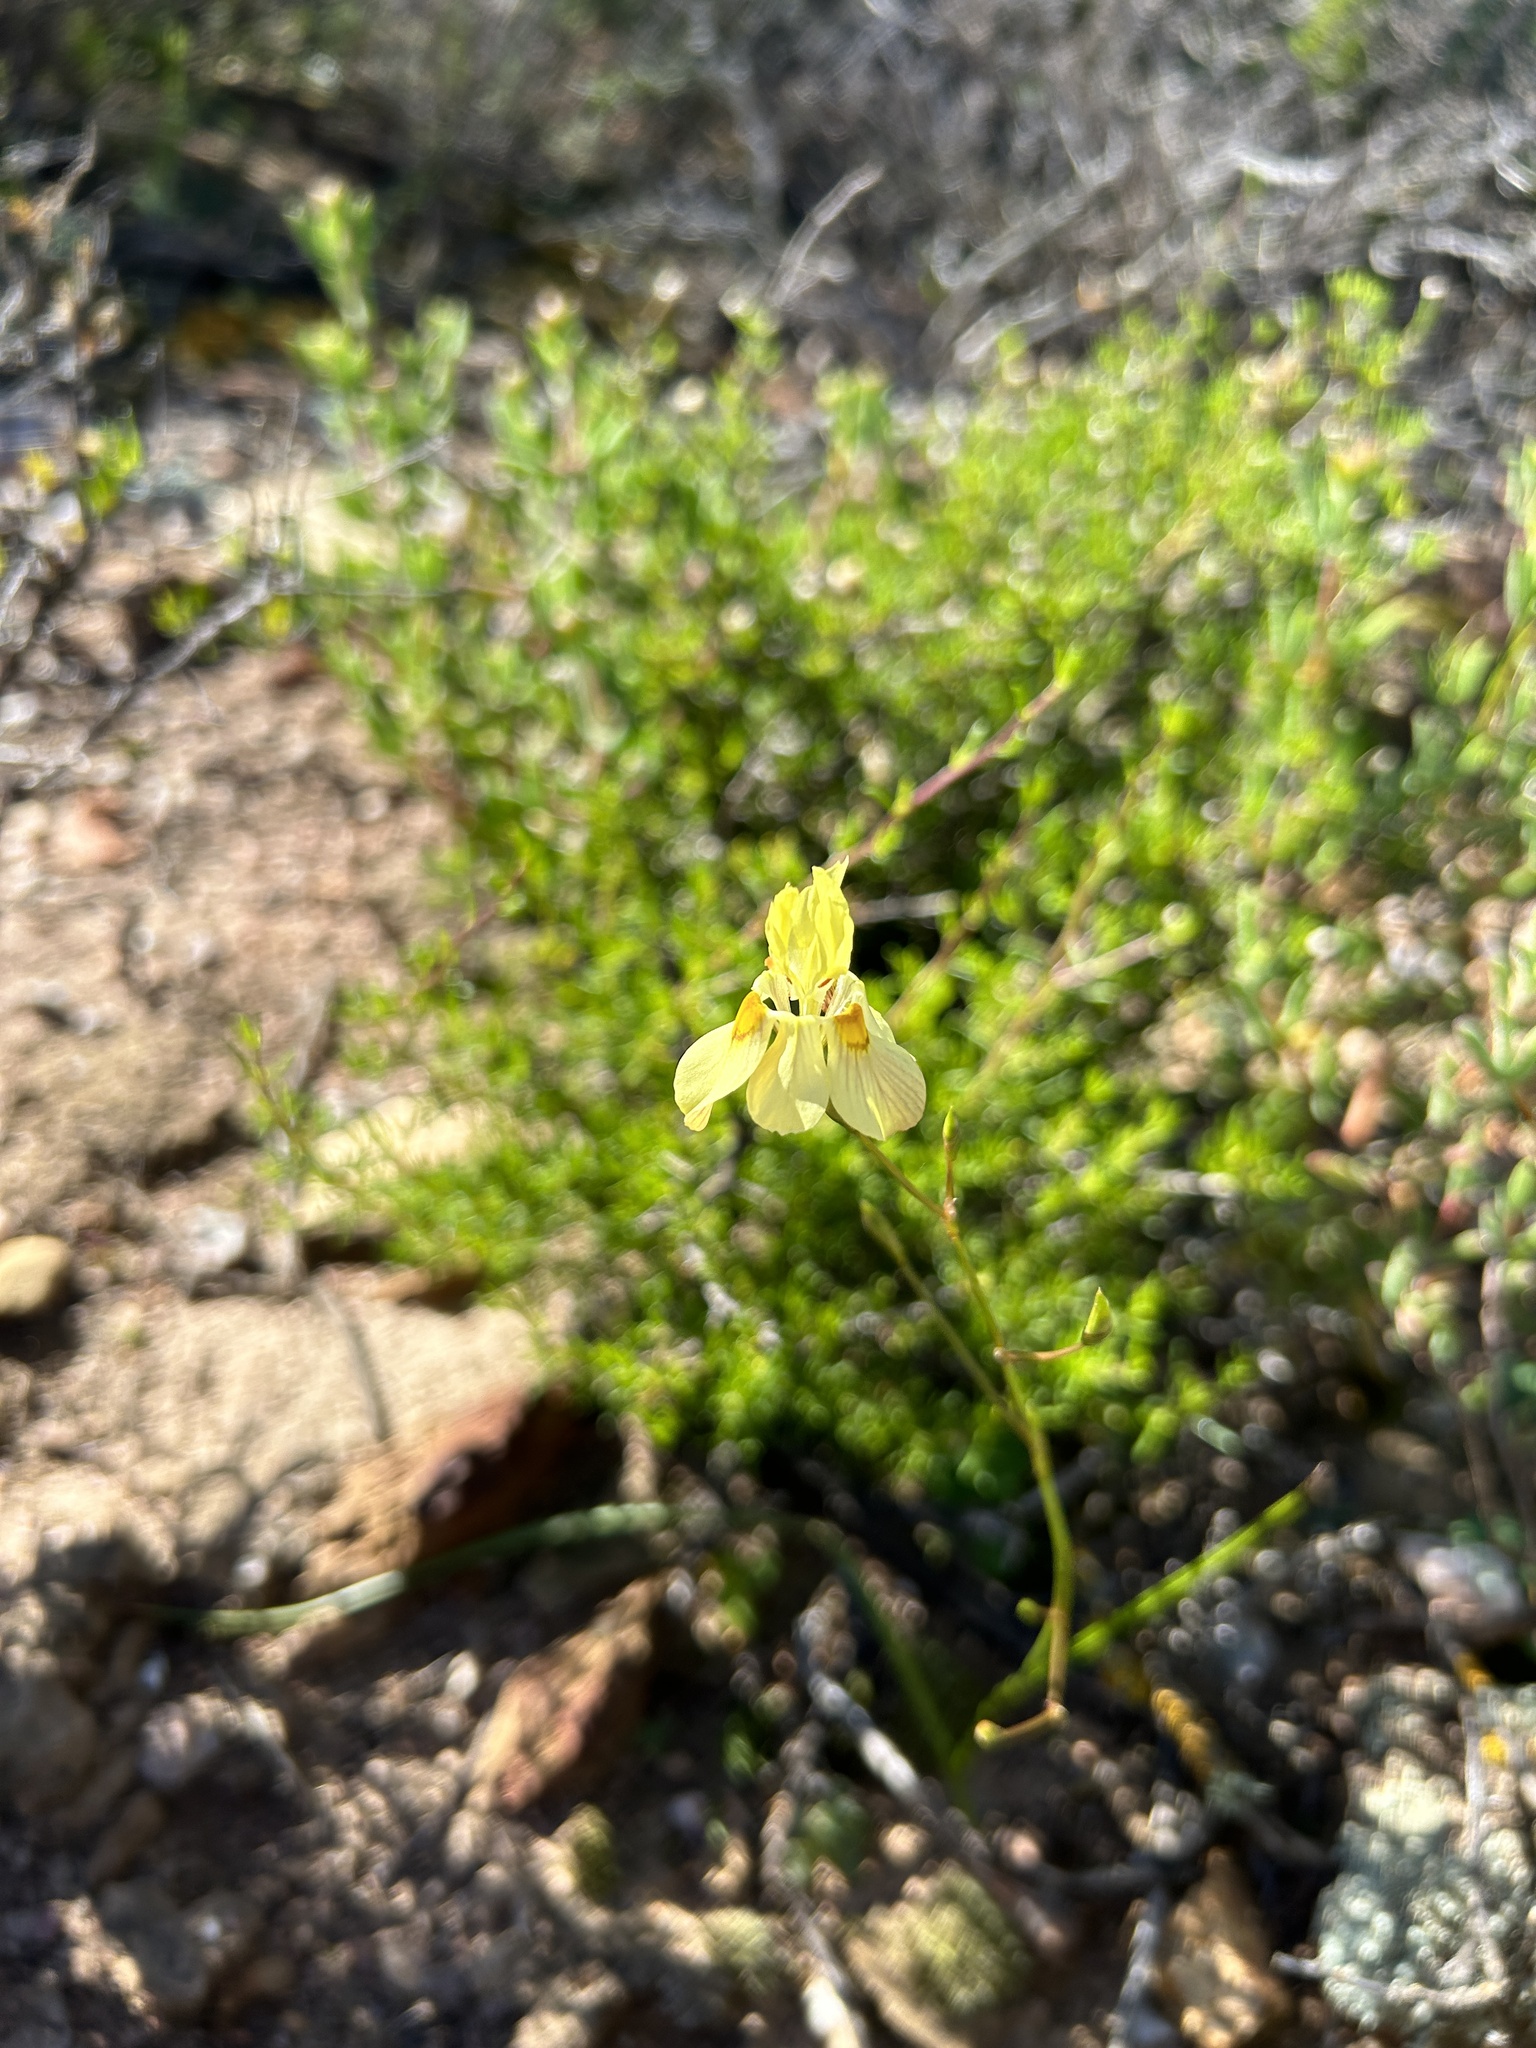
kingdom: Plantae
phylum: Tracheophyta
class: Liliopsida
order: Asparagales
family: Iridaceae
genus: Moraea
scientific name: Moraea gawleri
